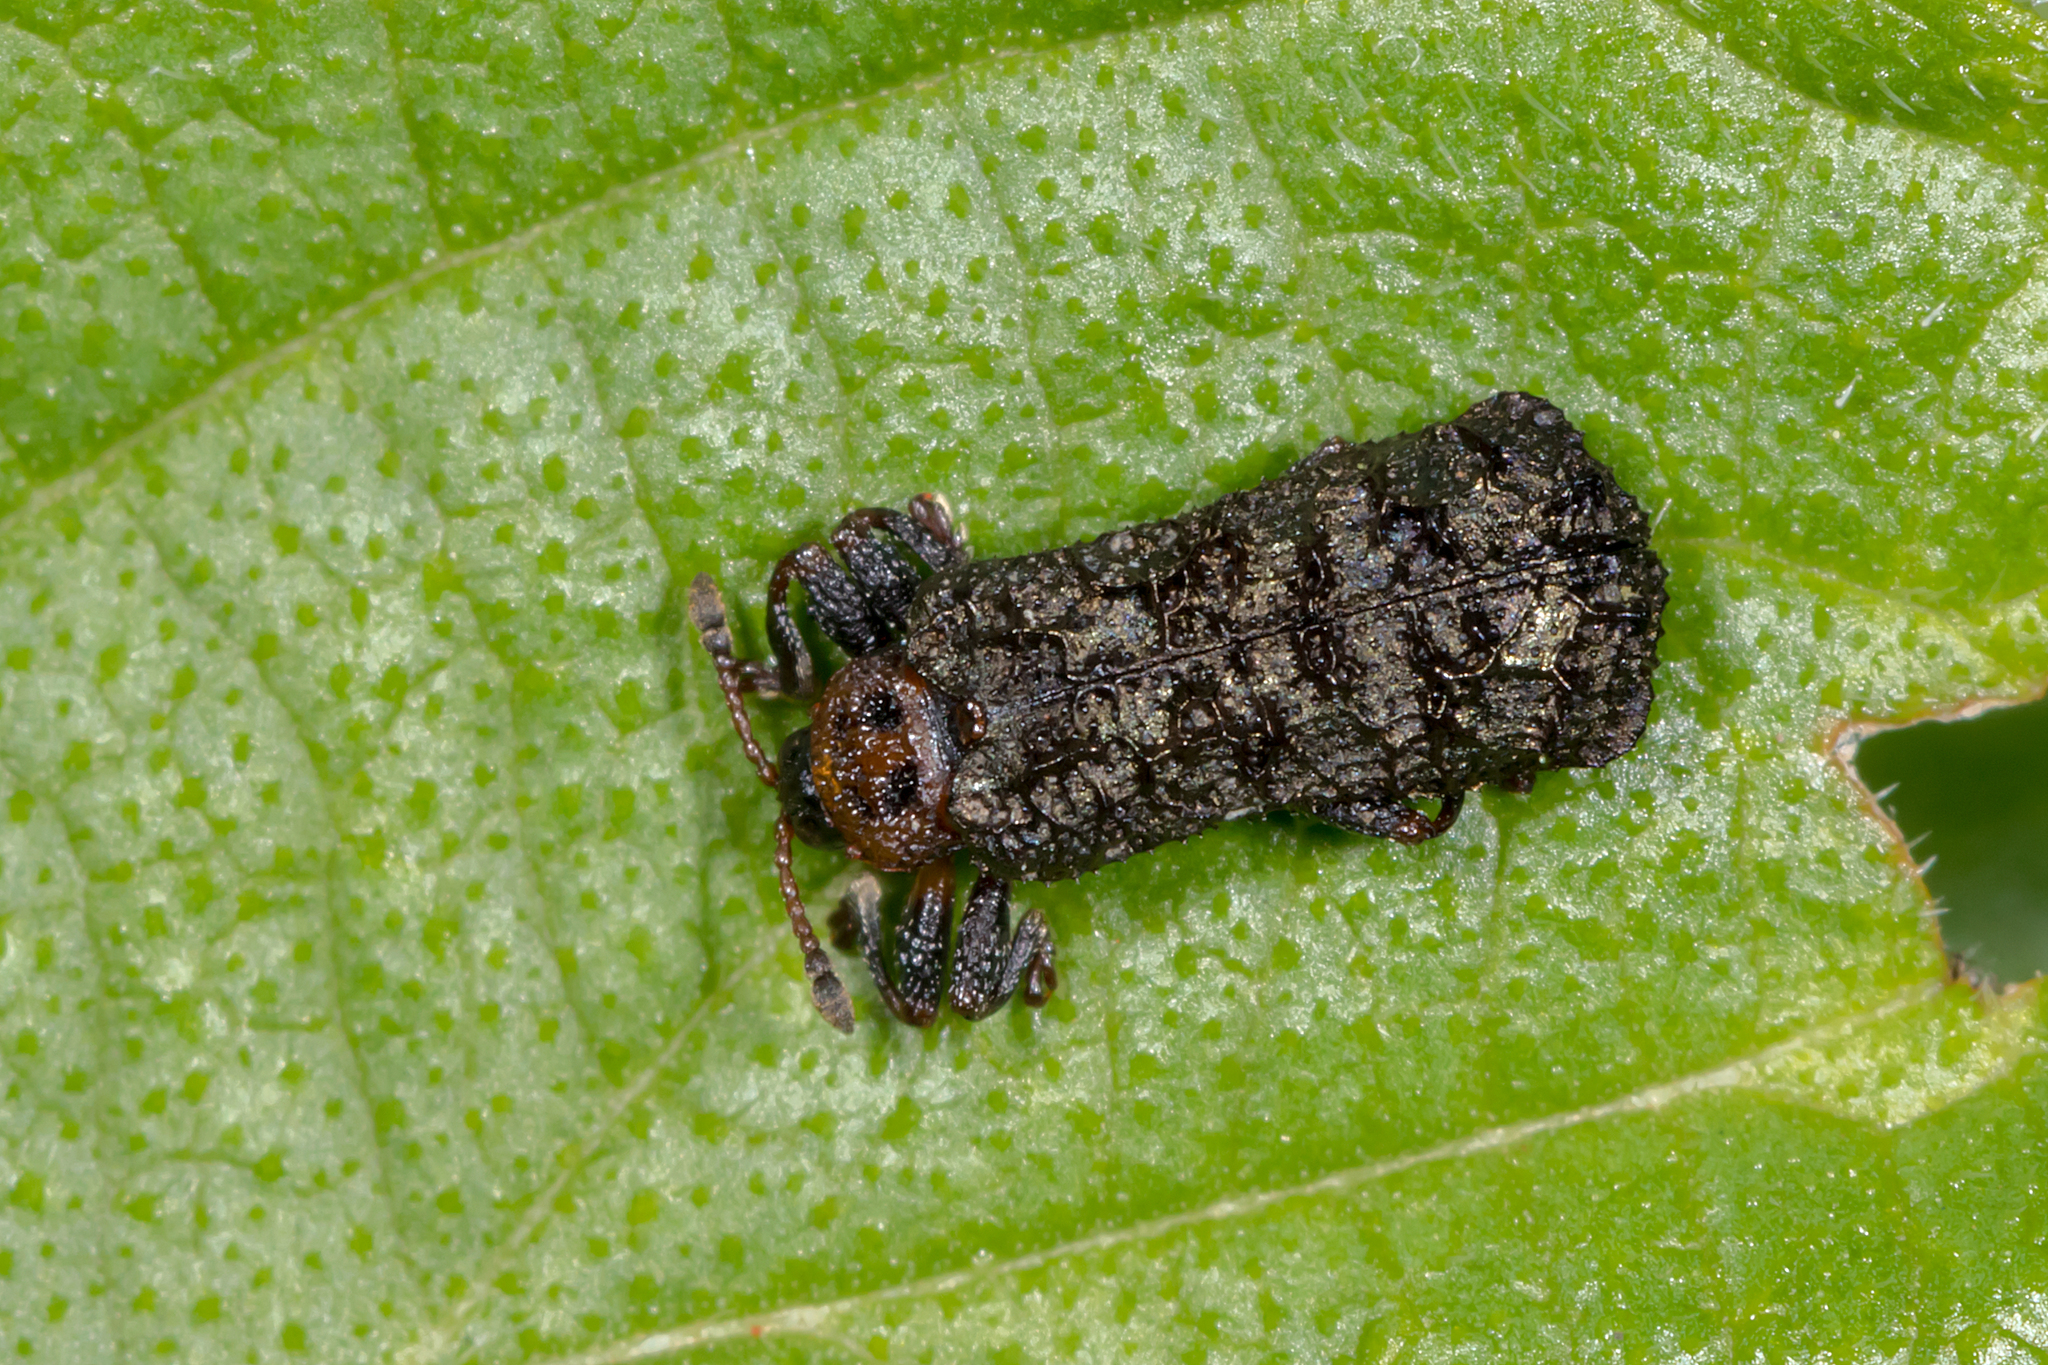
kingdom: Animalia
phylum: Arthropoda
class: Insecta
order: Coleoptera
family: Chrysomelidae
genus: Octotoma
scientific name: Octotoma scabripennis
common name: Beetle
